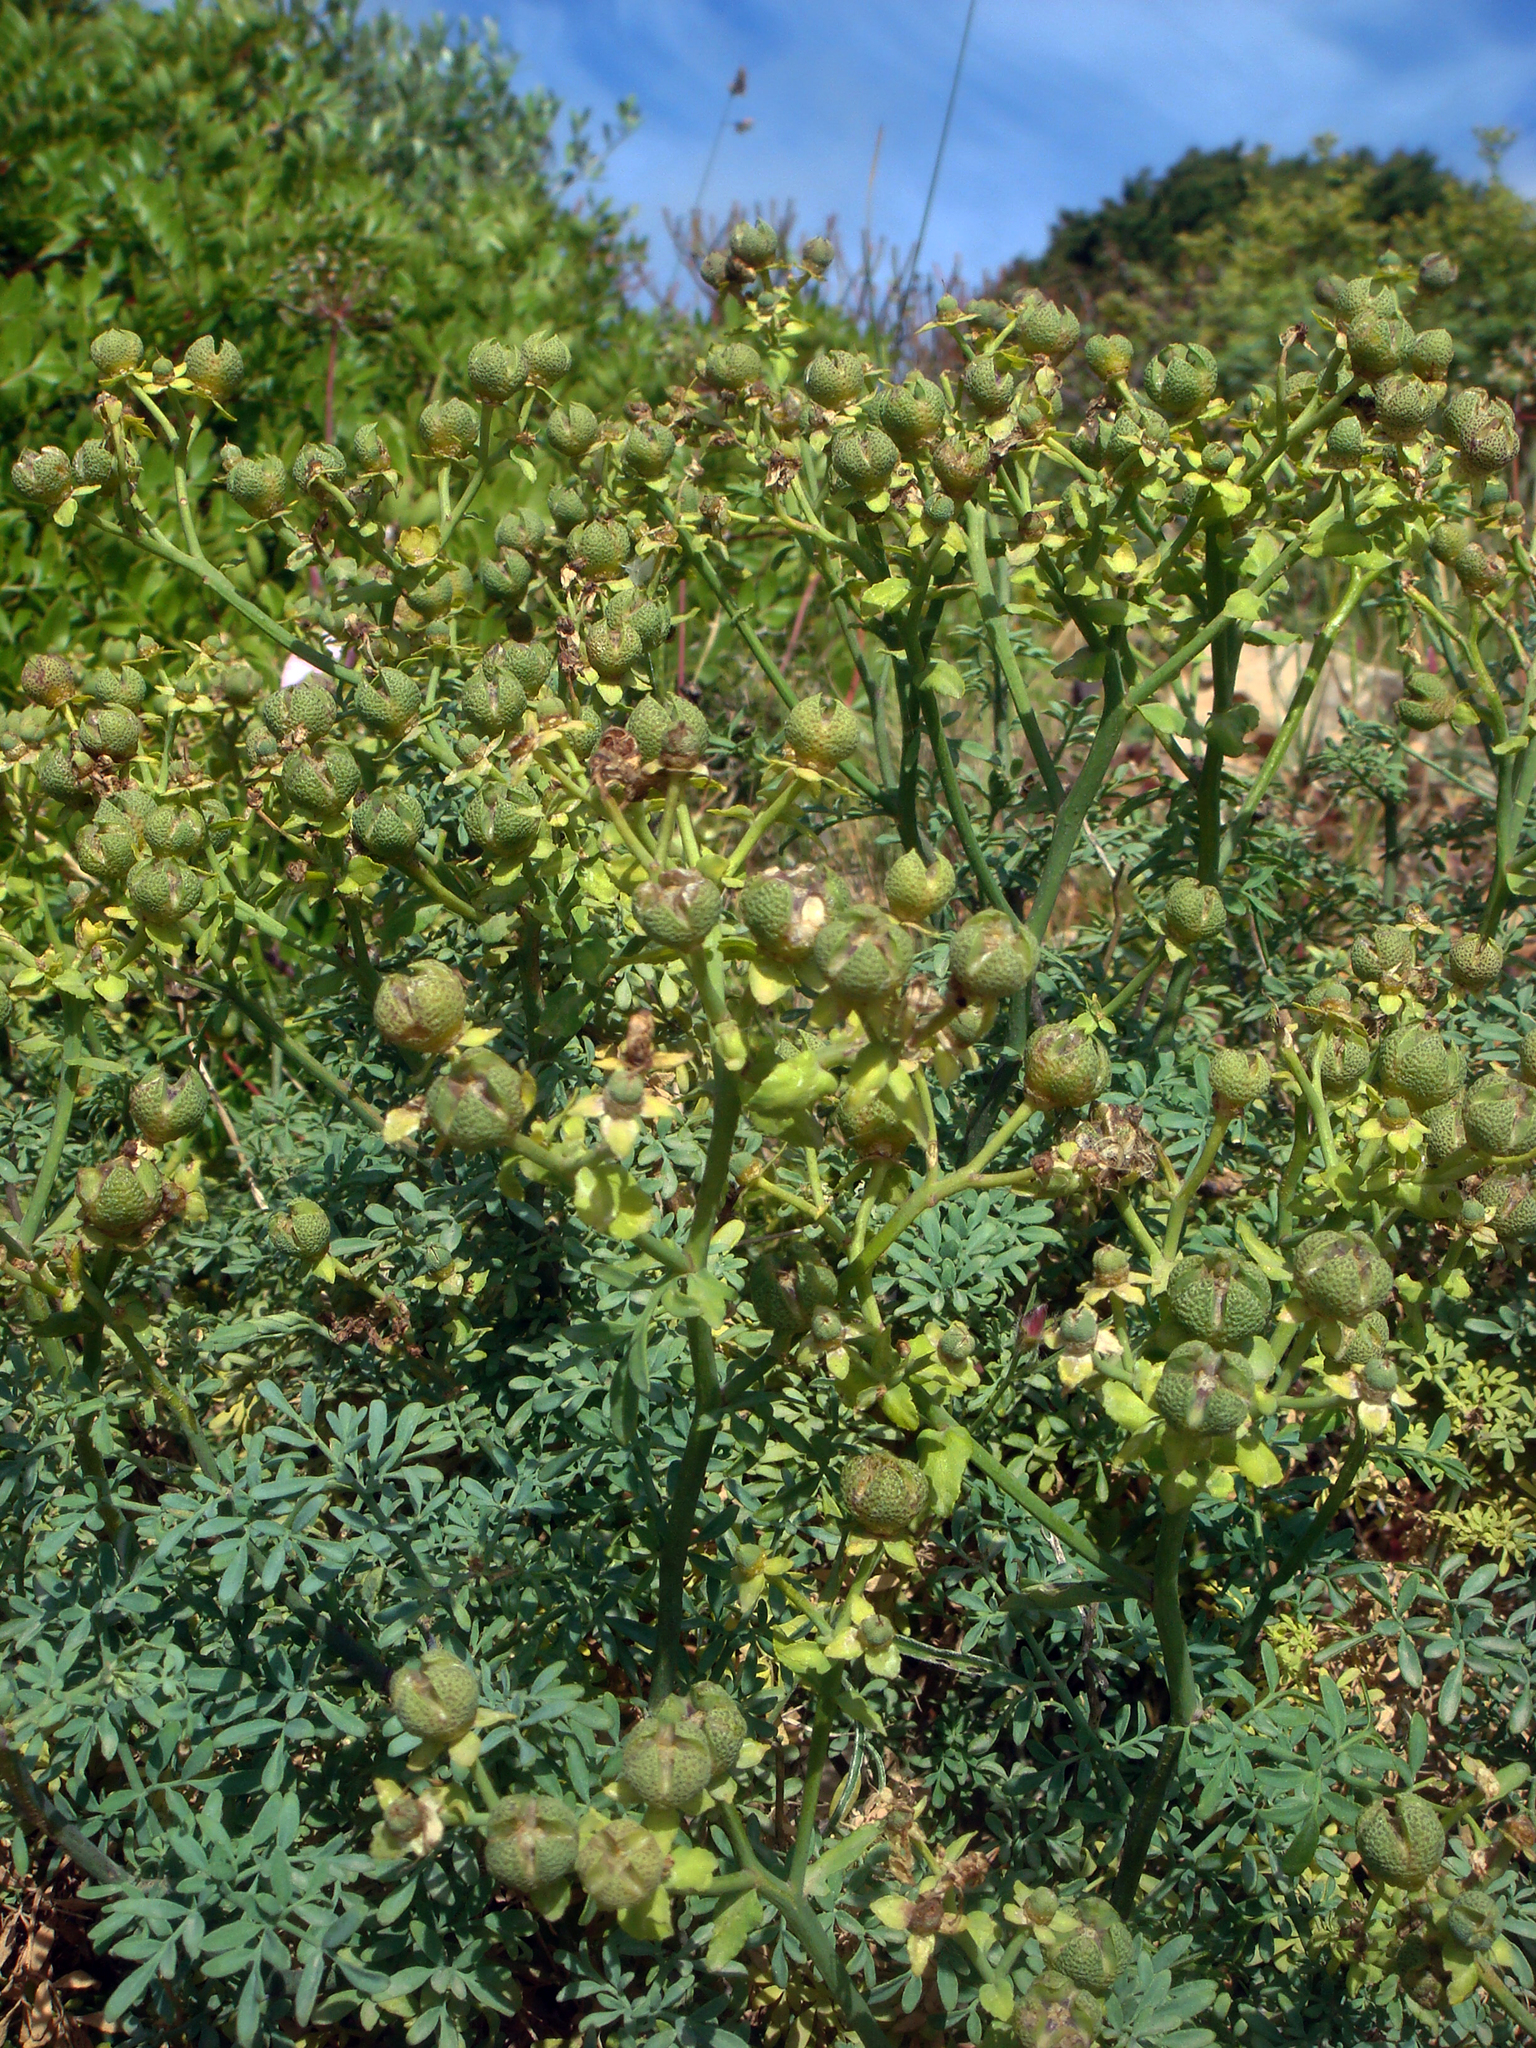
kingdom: Plantae
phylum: Tracheophyta
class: Magnoliopsida
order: Sapindales
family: Rutaceae
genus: Ruta
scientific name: Ruta chalepensis
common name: Fringed rue
